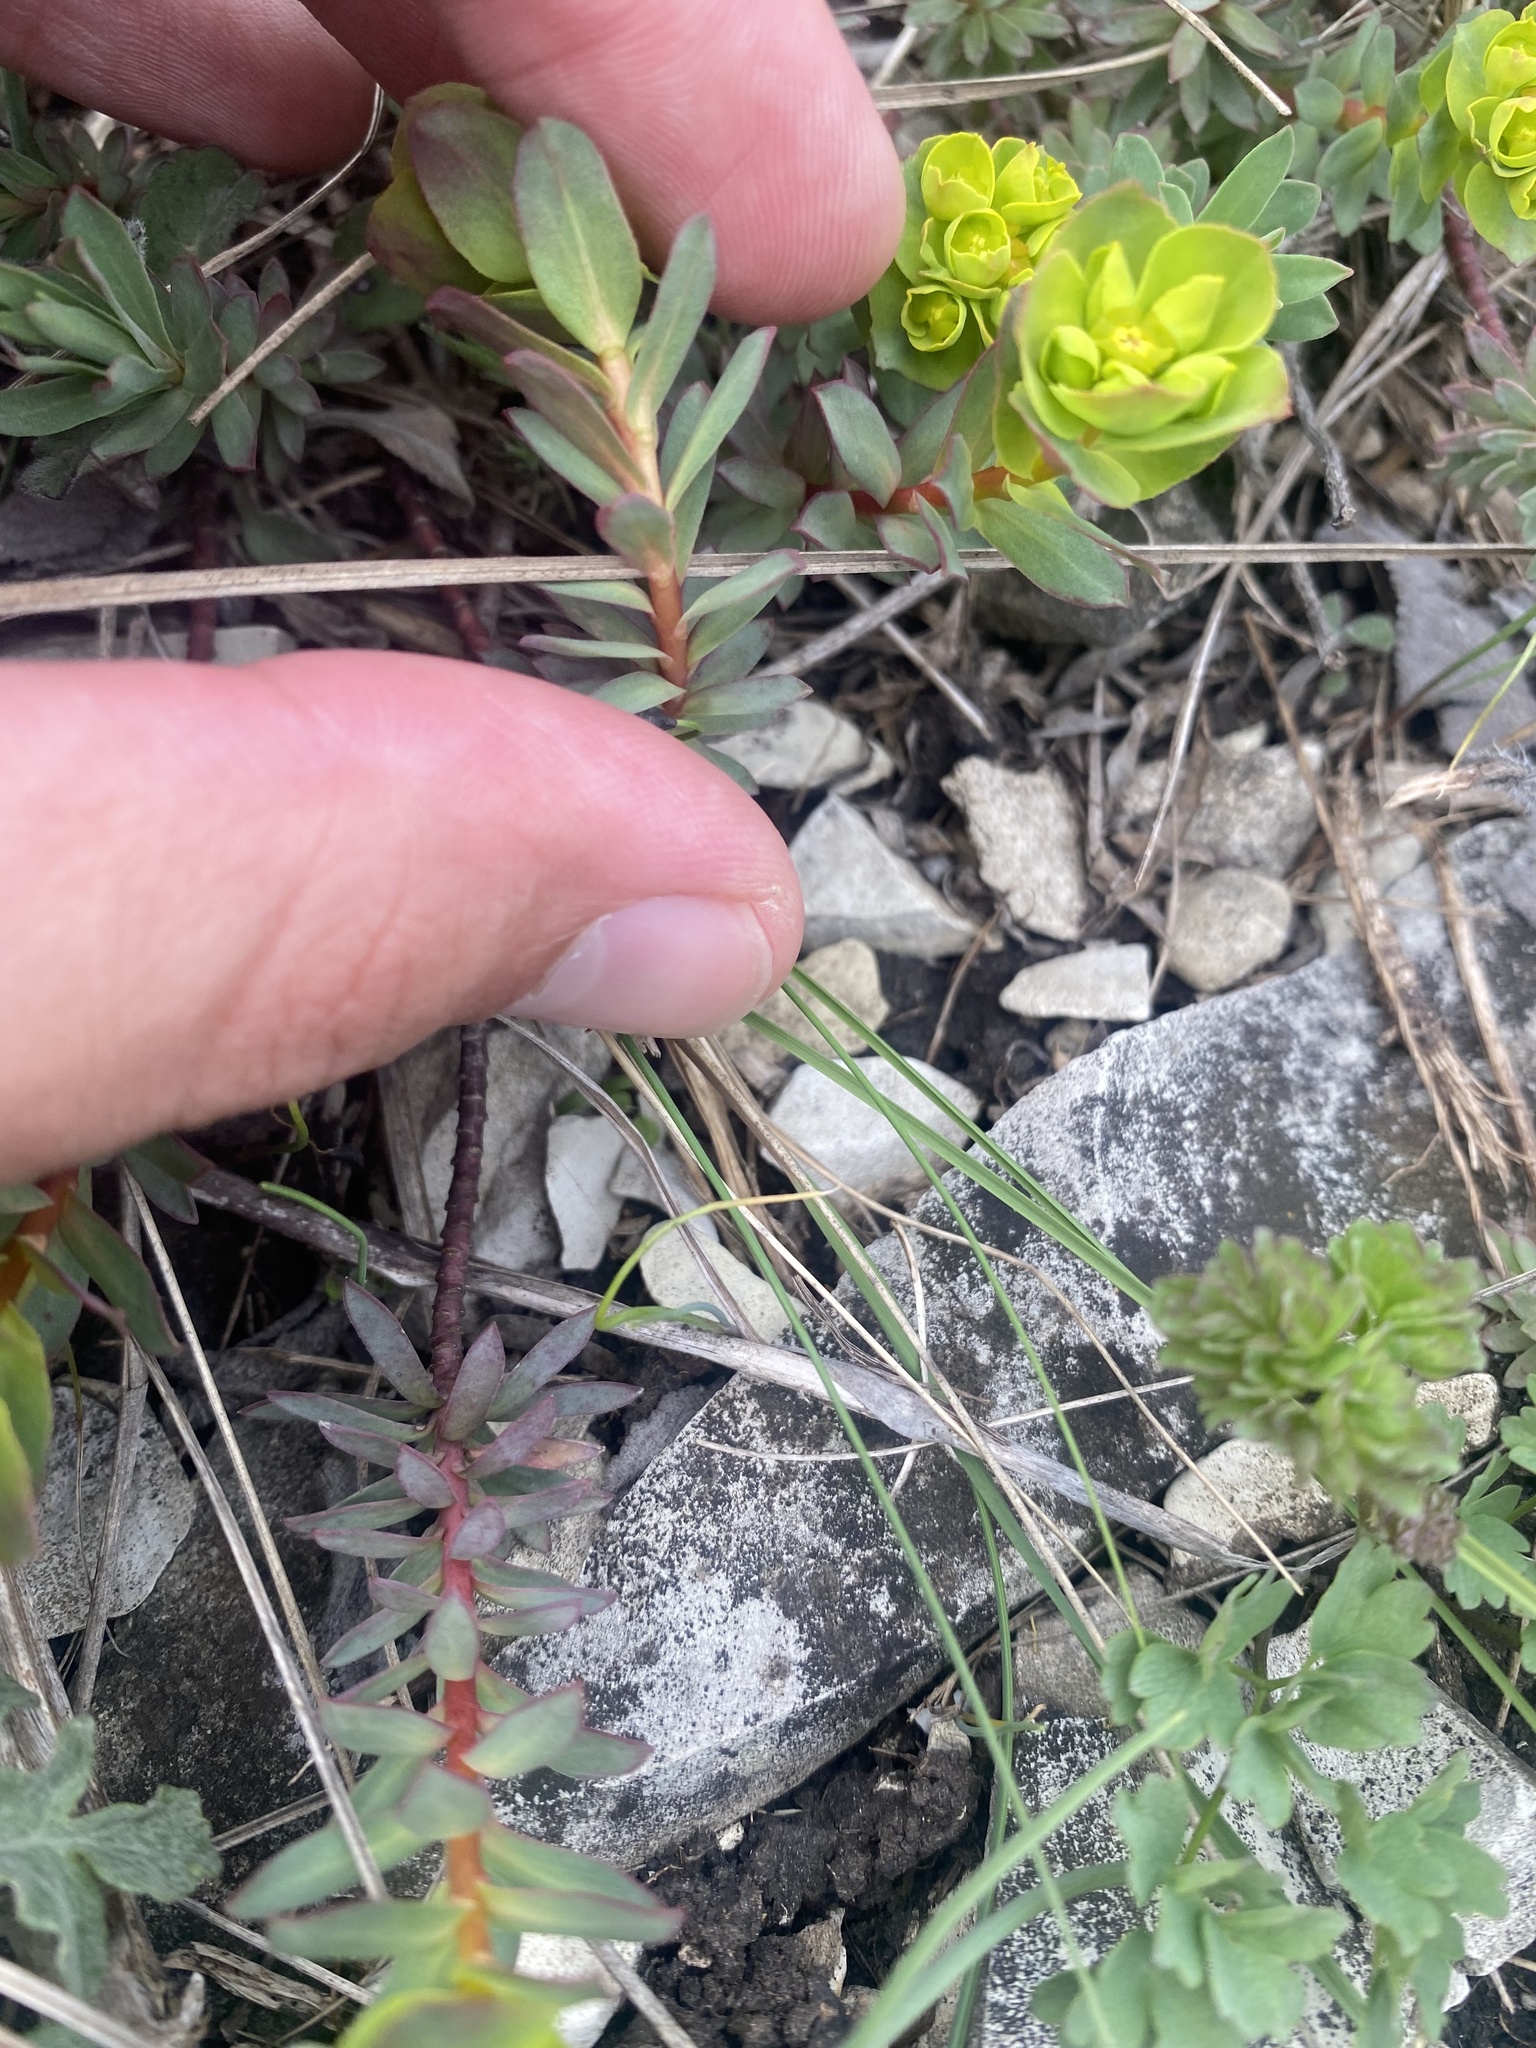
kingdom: Plantae
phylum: Tracheophyta
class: Magnoliopsida
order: Malpighiales
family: Euphorbiaceae
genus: Euphorbia
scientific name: Euphorbia petrophila
